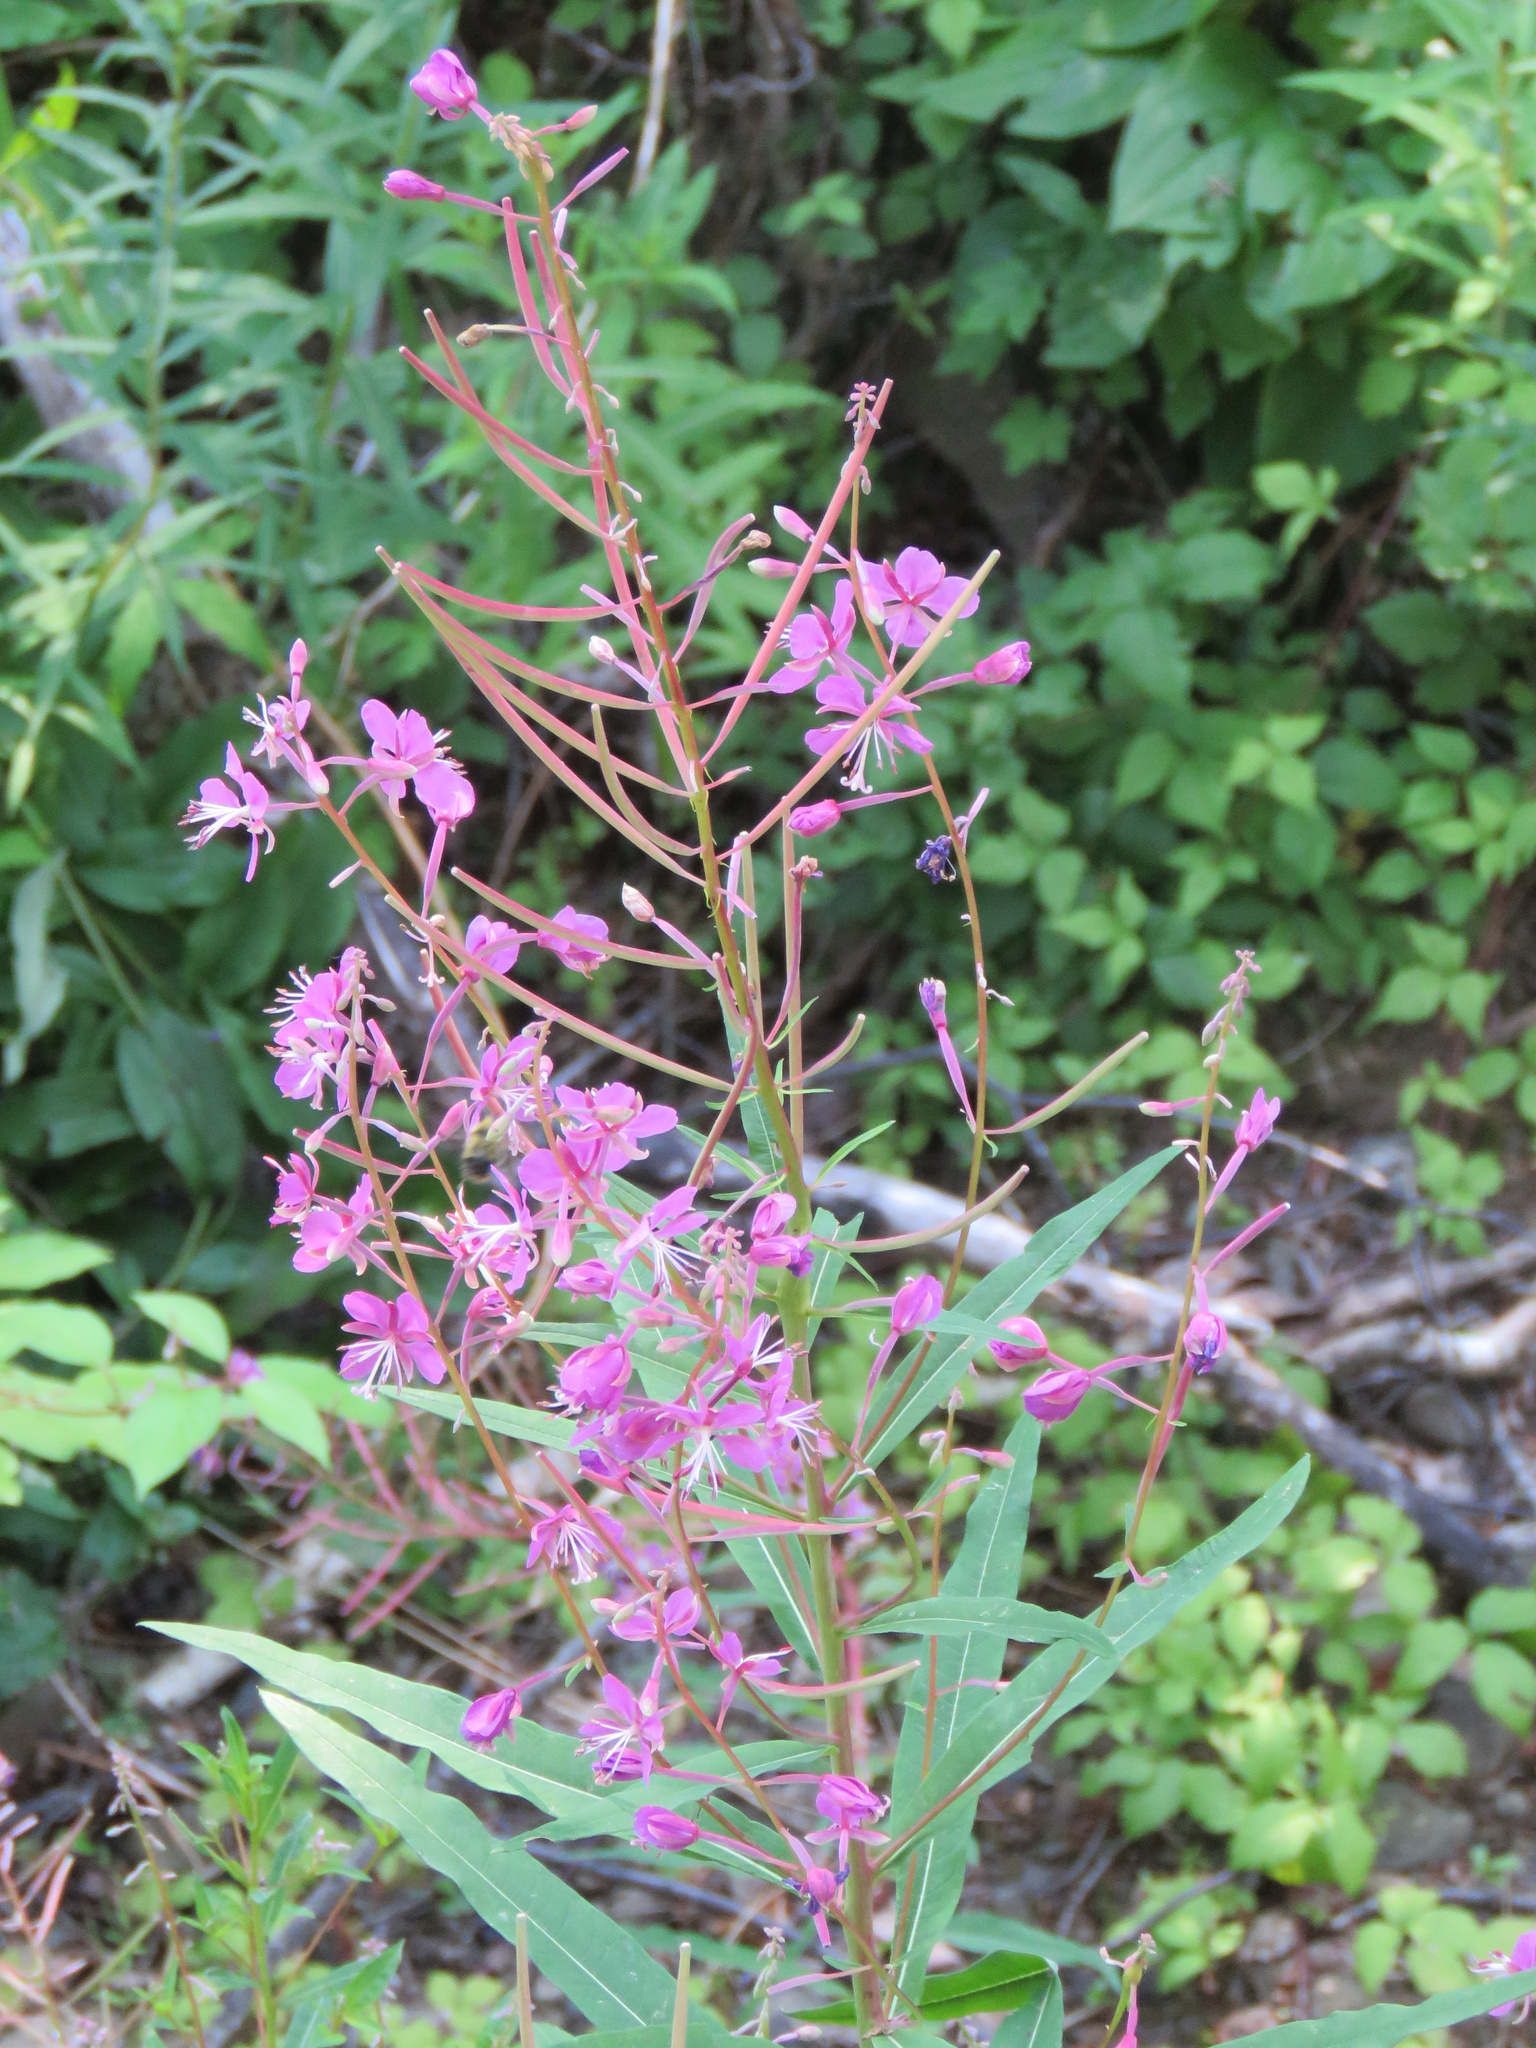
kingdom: Plantae
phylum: Tracheophyta
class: Magnoliopsida
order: Myrtales
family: Onagraceae
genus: Chamaenerion
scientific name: Chamaenerion angustifolium
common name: Fireweed
